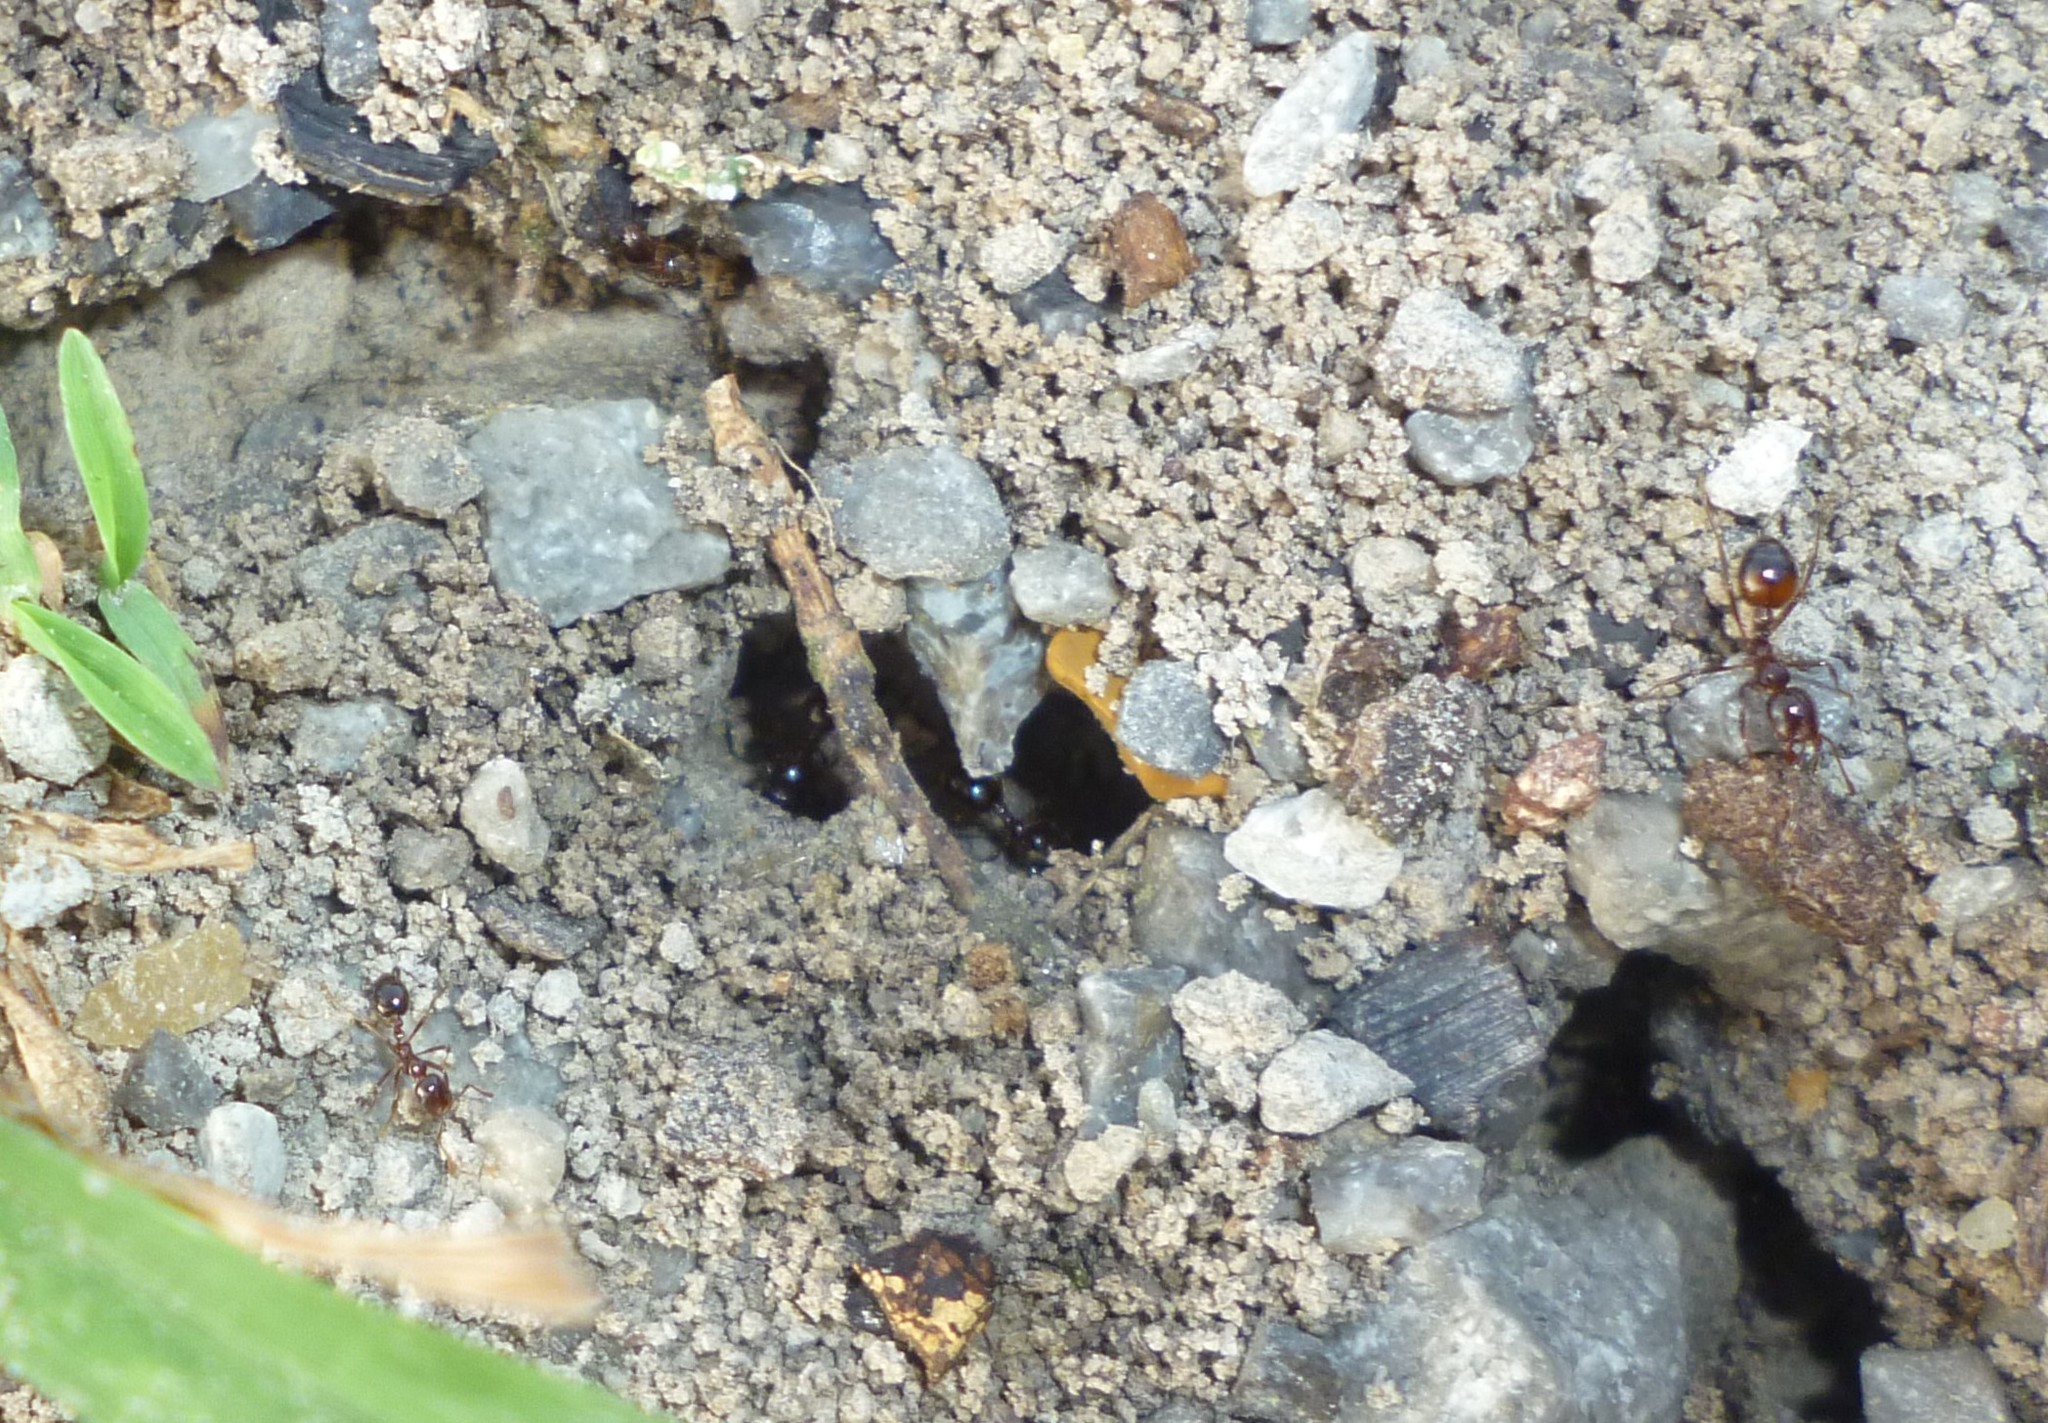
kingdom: Animalia
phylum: Arthropoda
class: Insecta
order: Hymenoptera
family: Formicidae
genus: Solenopsis
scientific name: Solenopsis
